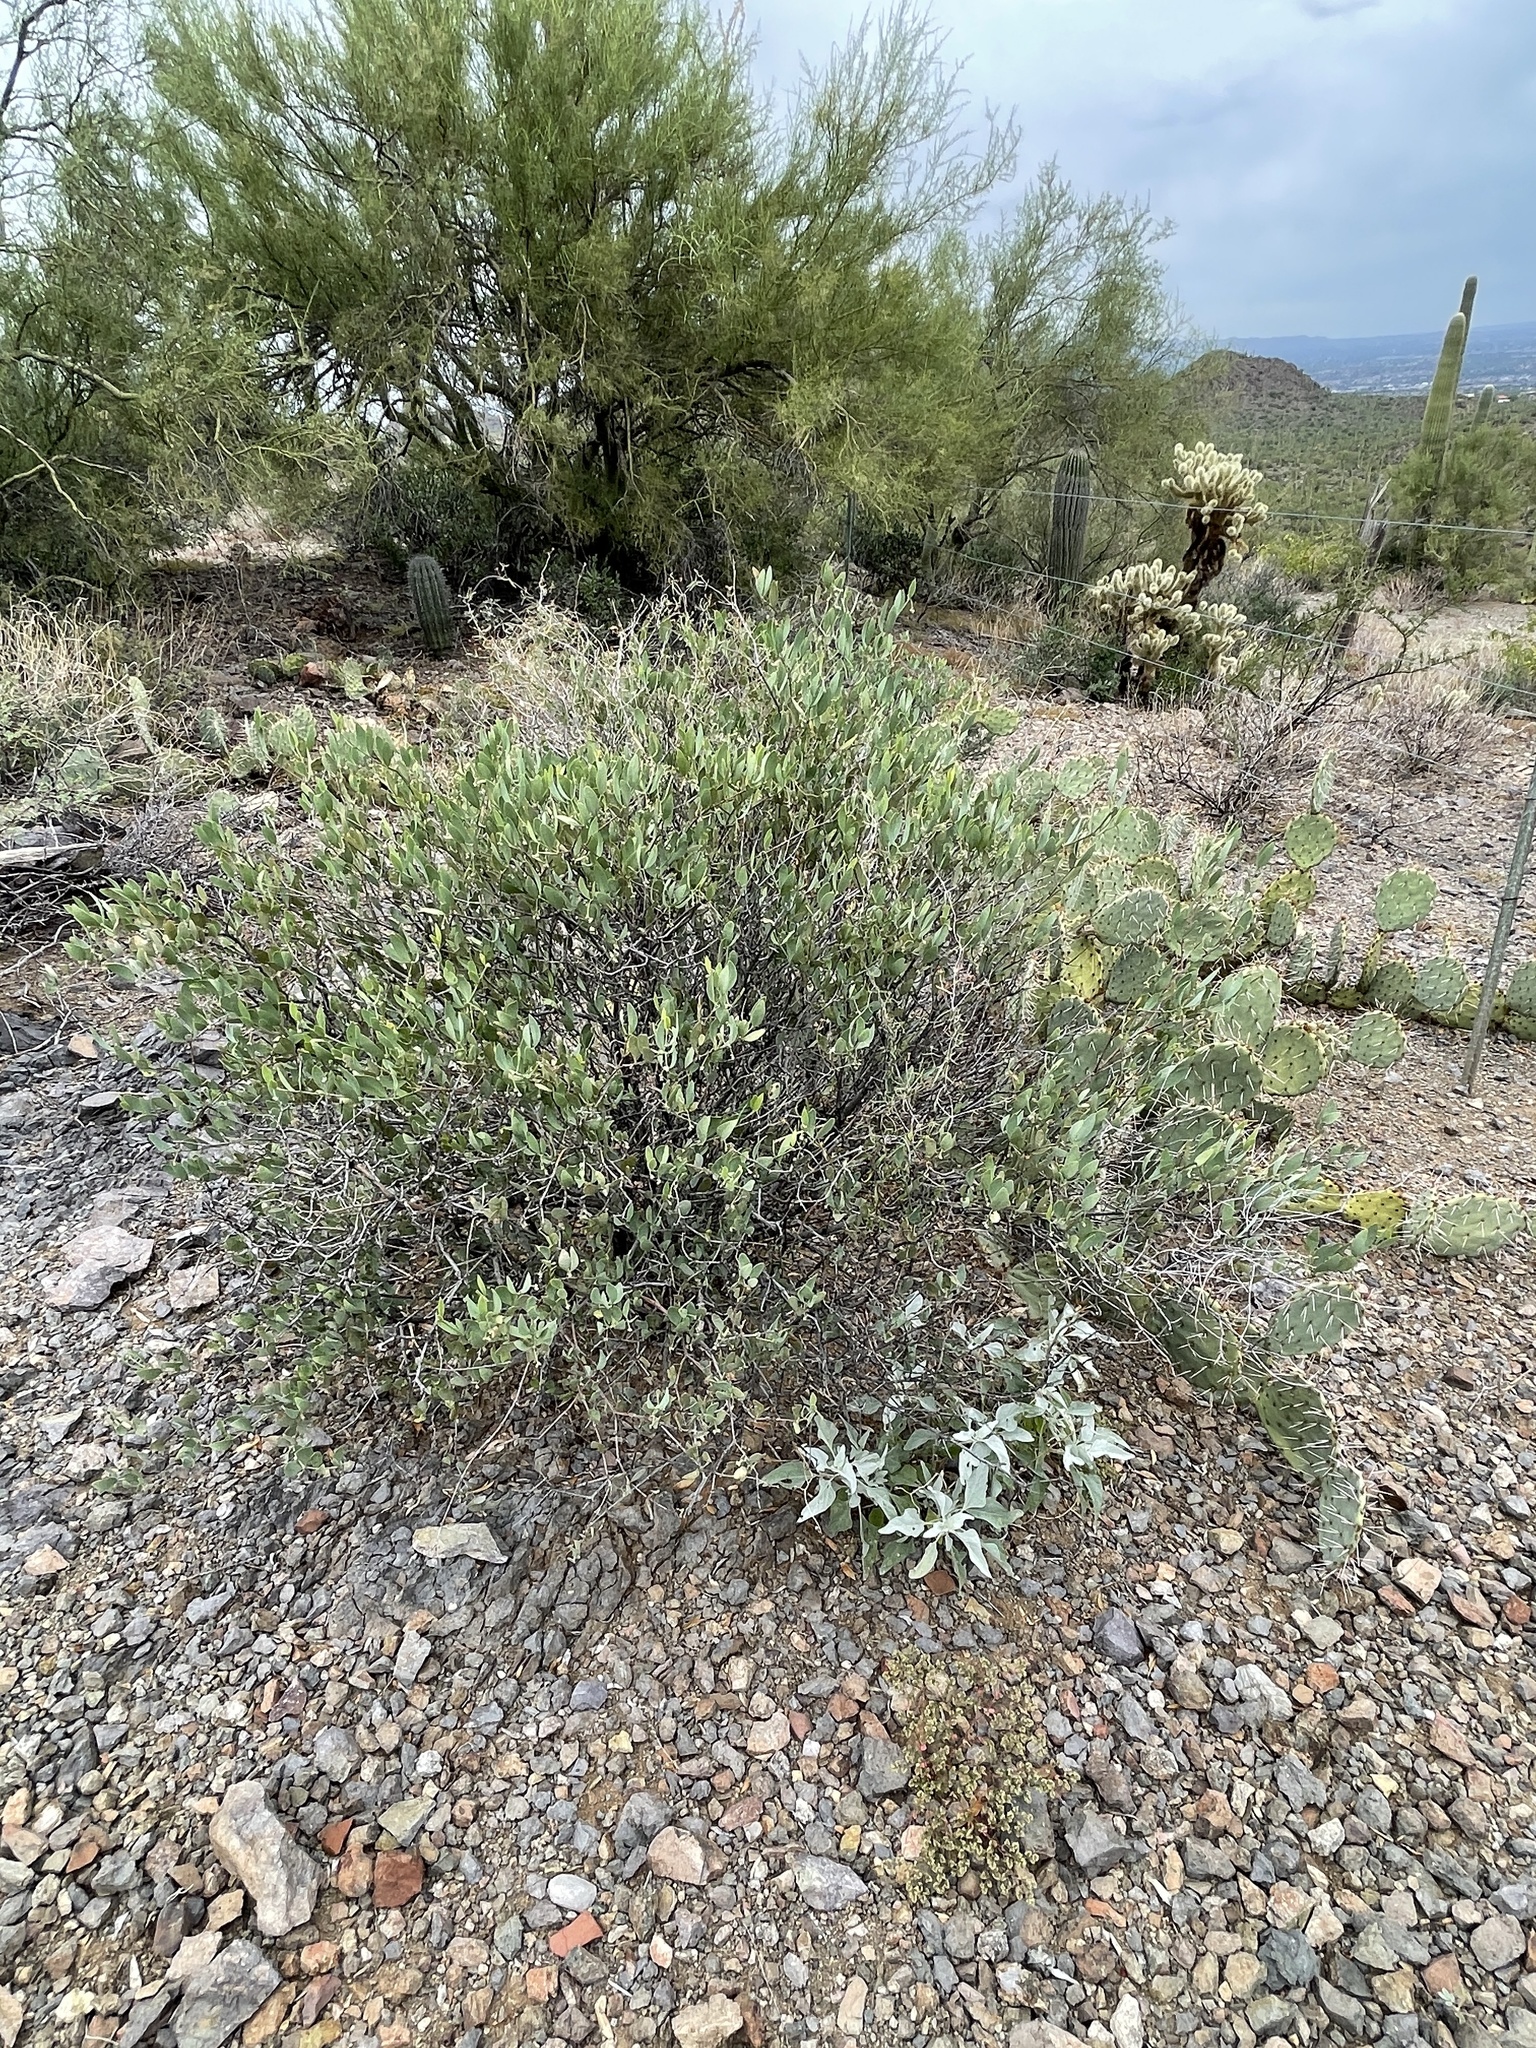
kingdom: Plantae
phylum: Tracheophyta
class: Magnoliopsida
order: Caryophyllales
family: Simmondsiaceae
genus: Simmondsia
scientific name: Simmondsia chinensis
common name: Jojoba
